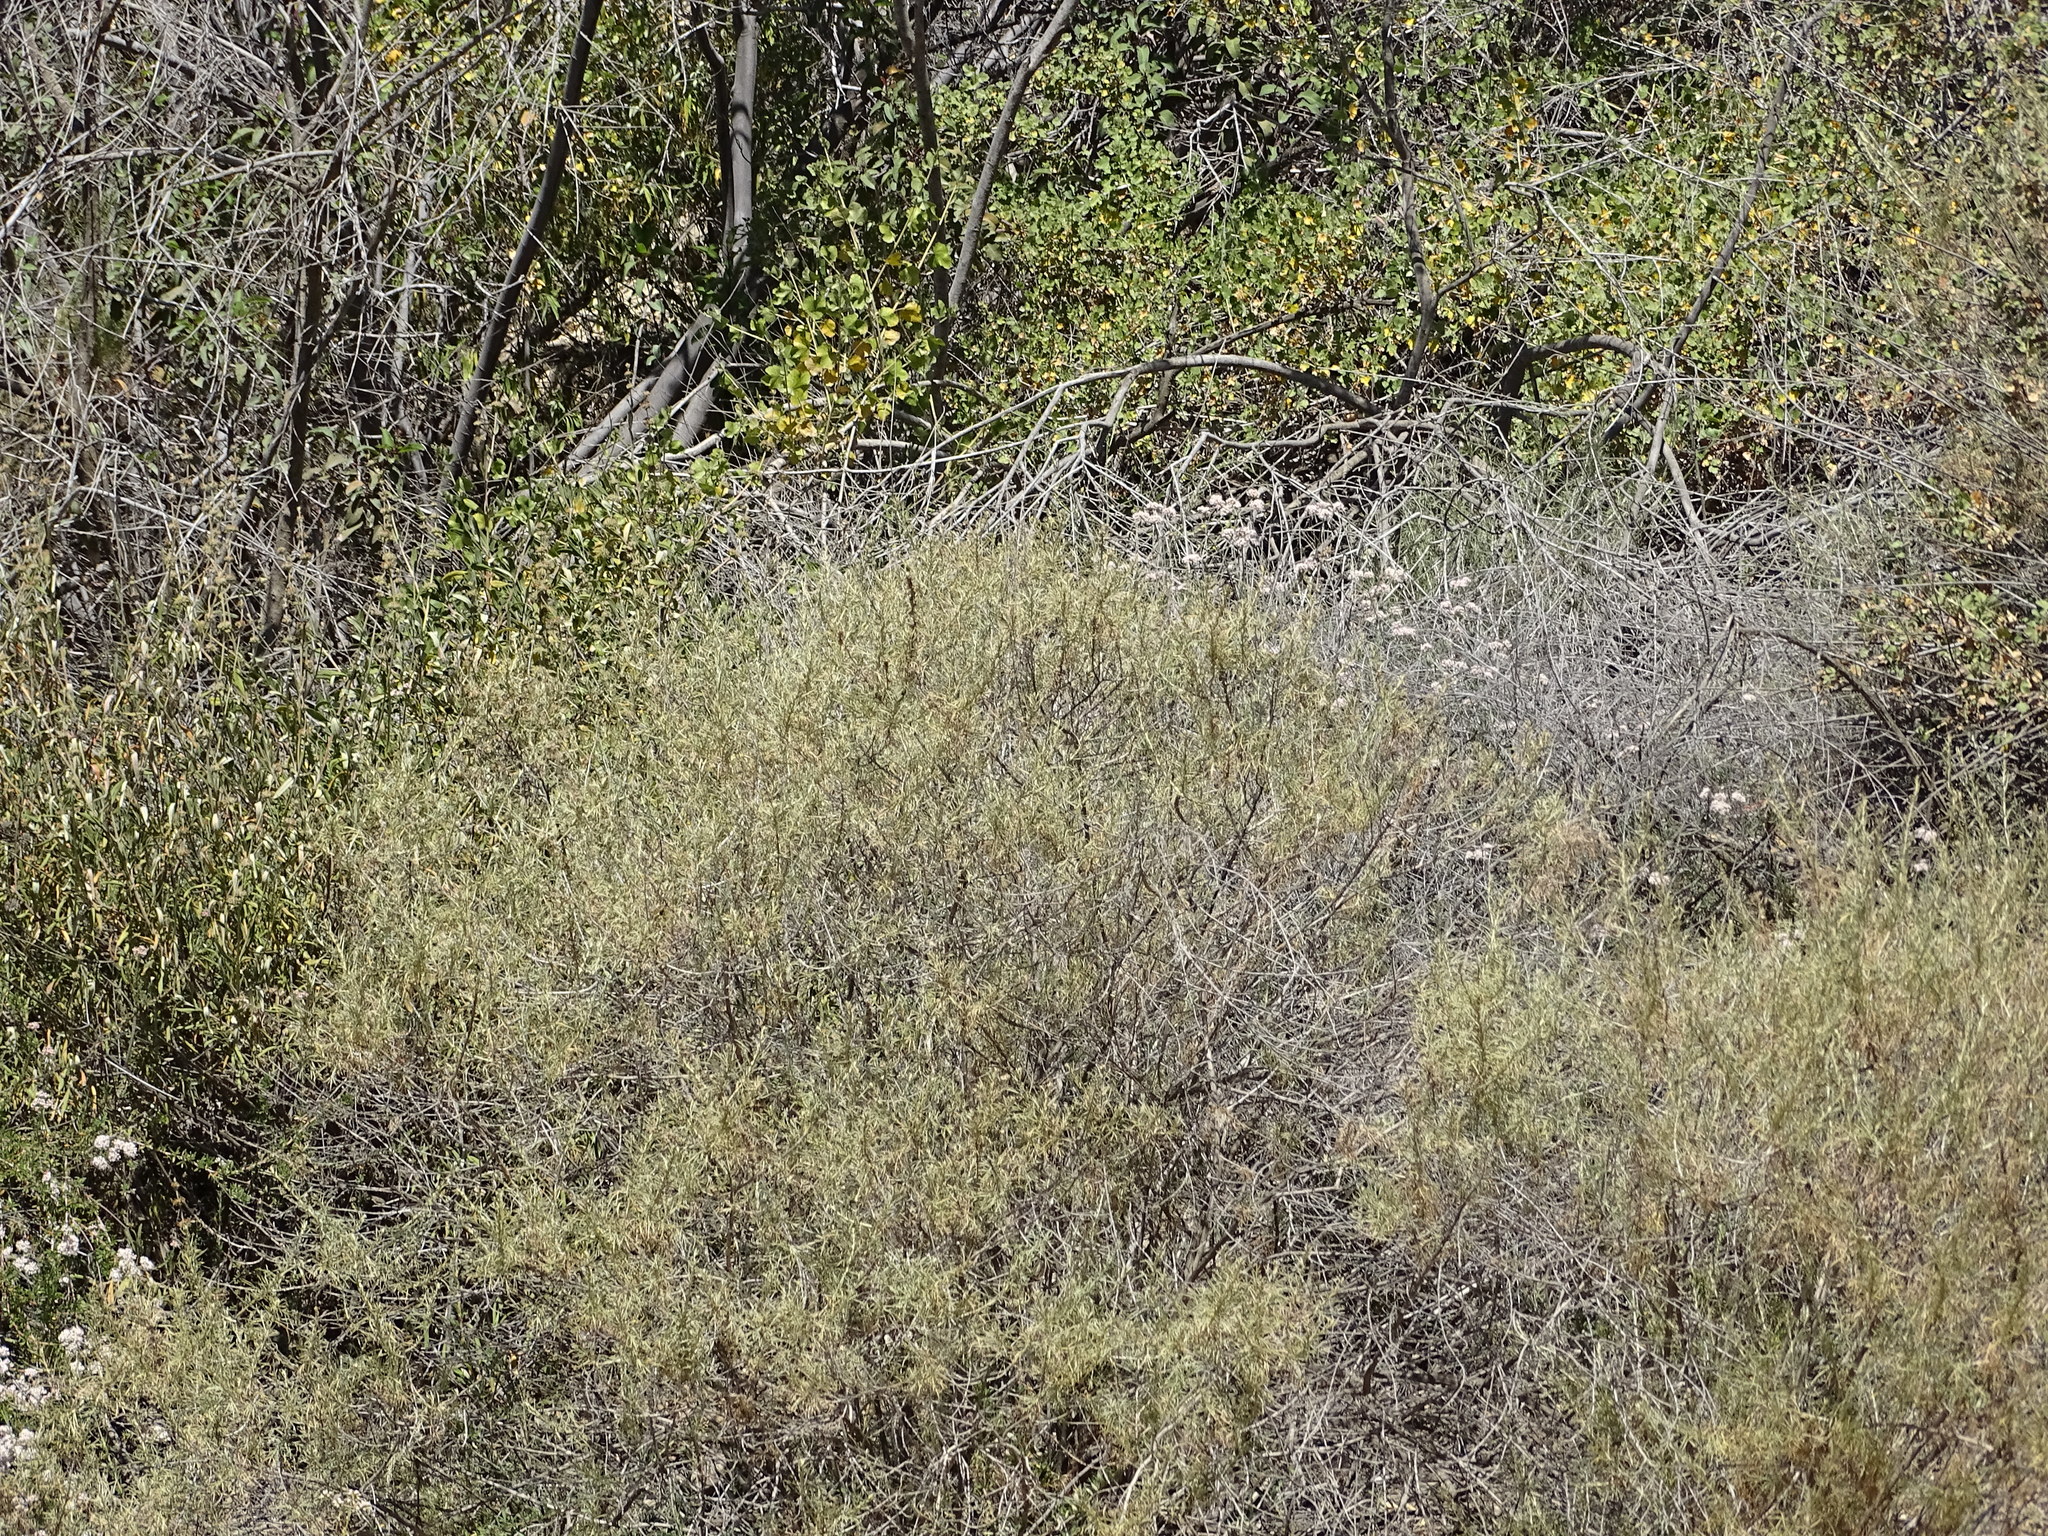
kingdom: Plantae
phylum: Tracheophyta
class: Magnoliopsida
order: Asterales
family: Asteraceae
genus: Artemisia
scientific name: Artemisia californica
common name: California sagebrush
